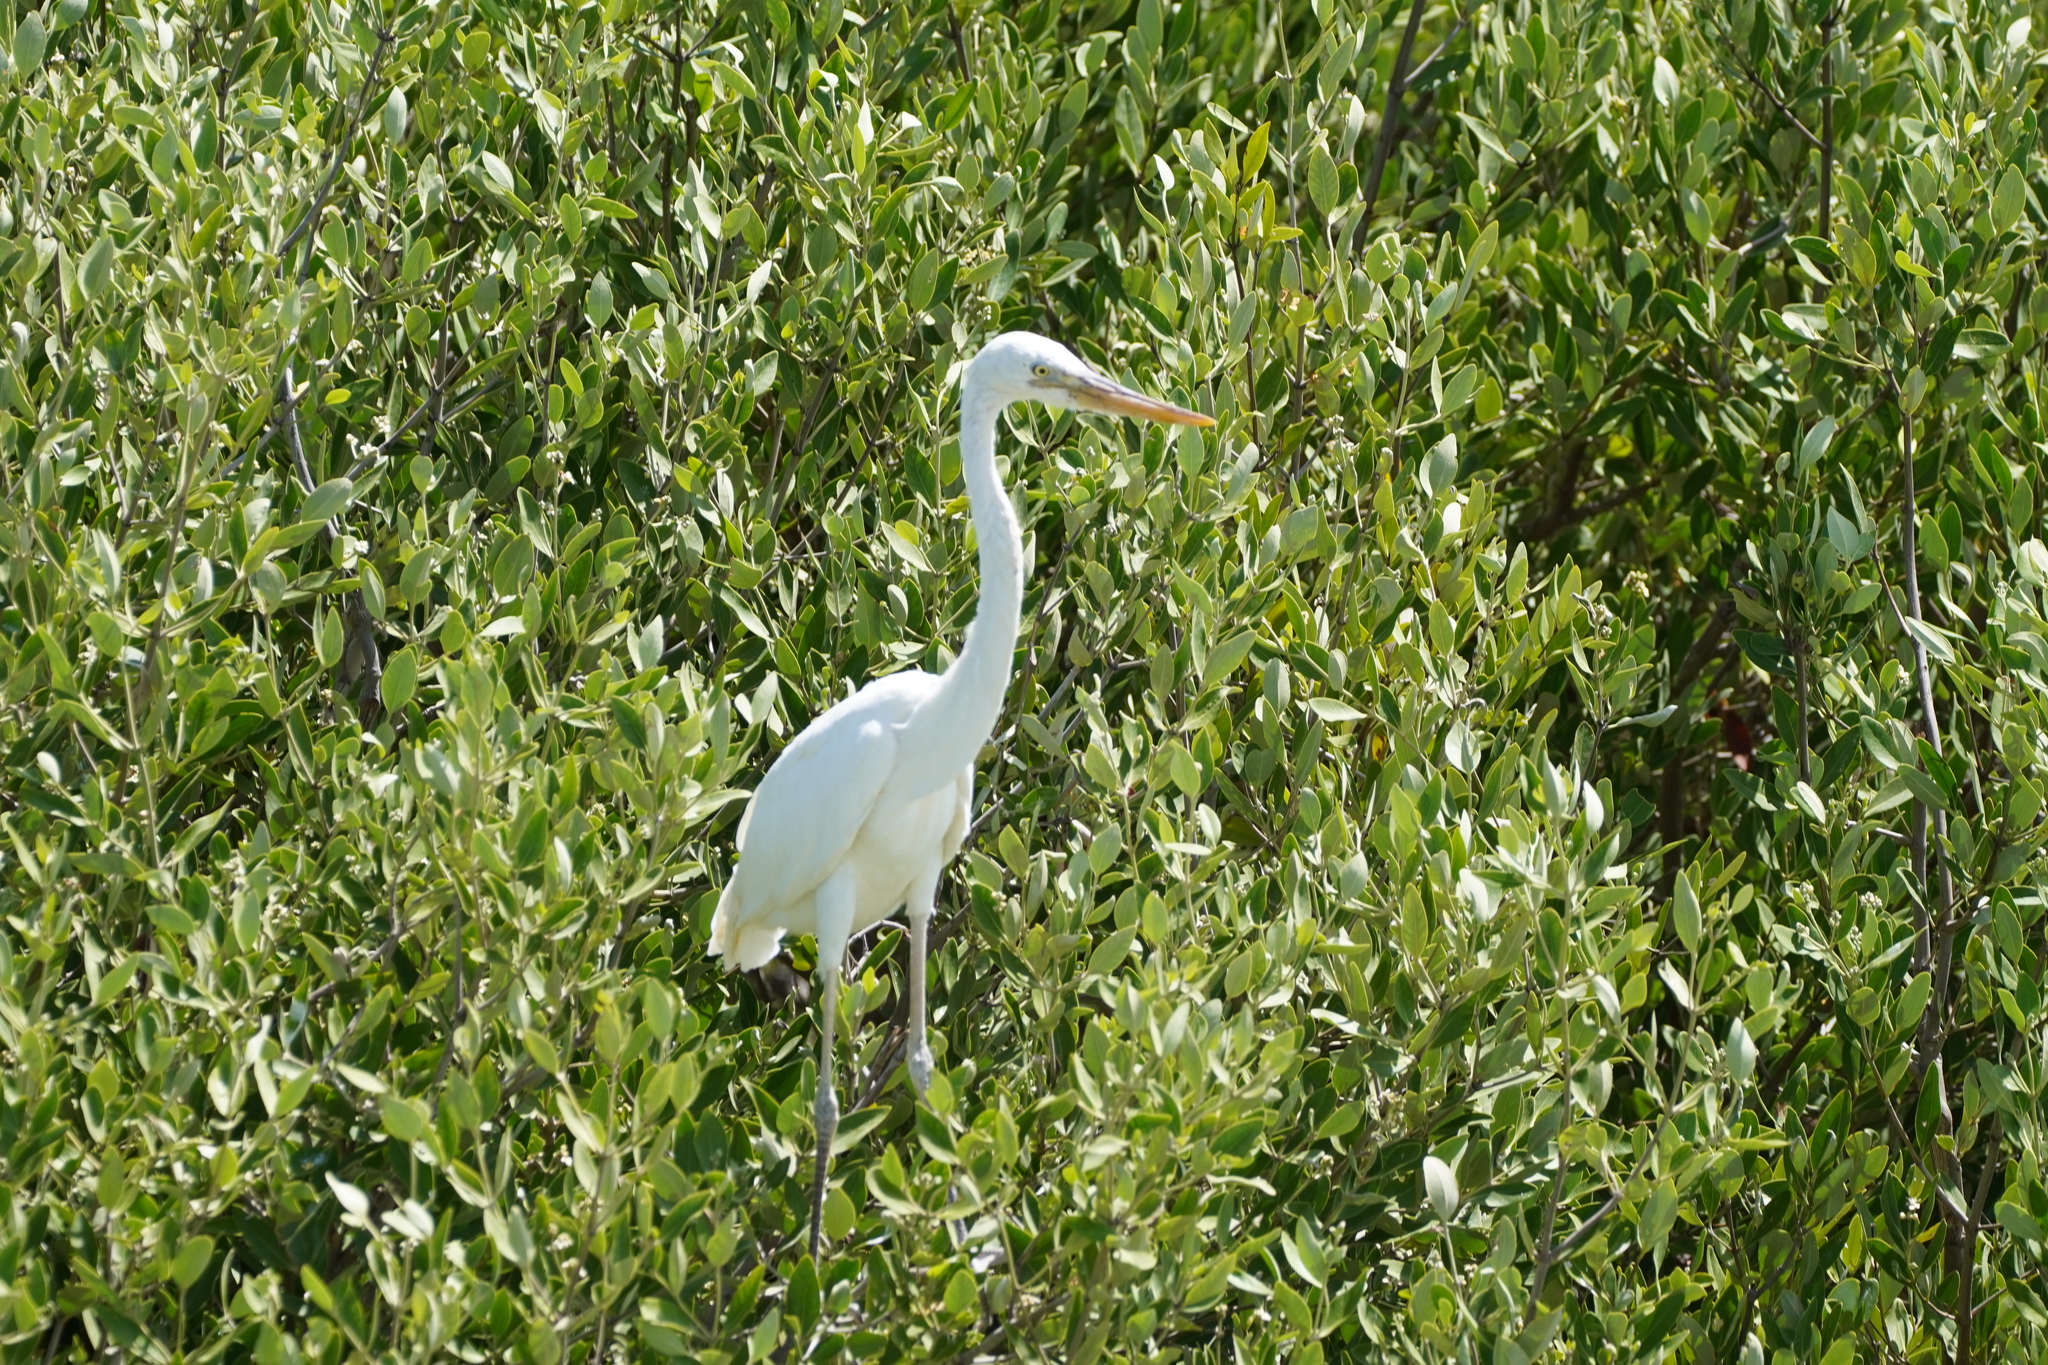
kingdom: Animalia
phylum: Chordata
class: Aves
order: Pelecaniformes
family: Ardeidae
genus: Ardea
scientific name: Ardea herodias
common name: Great blue heron
